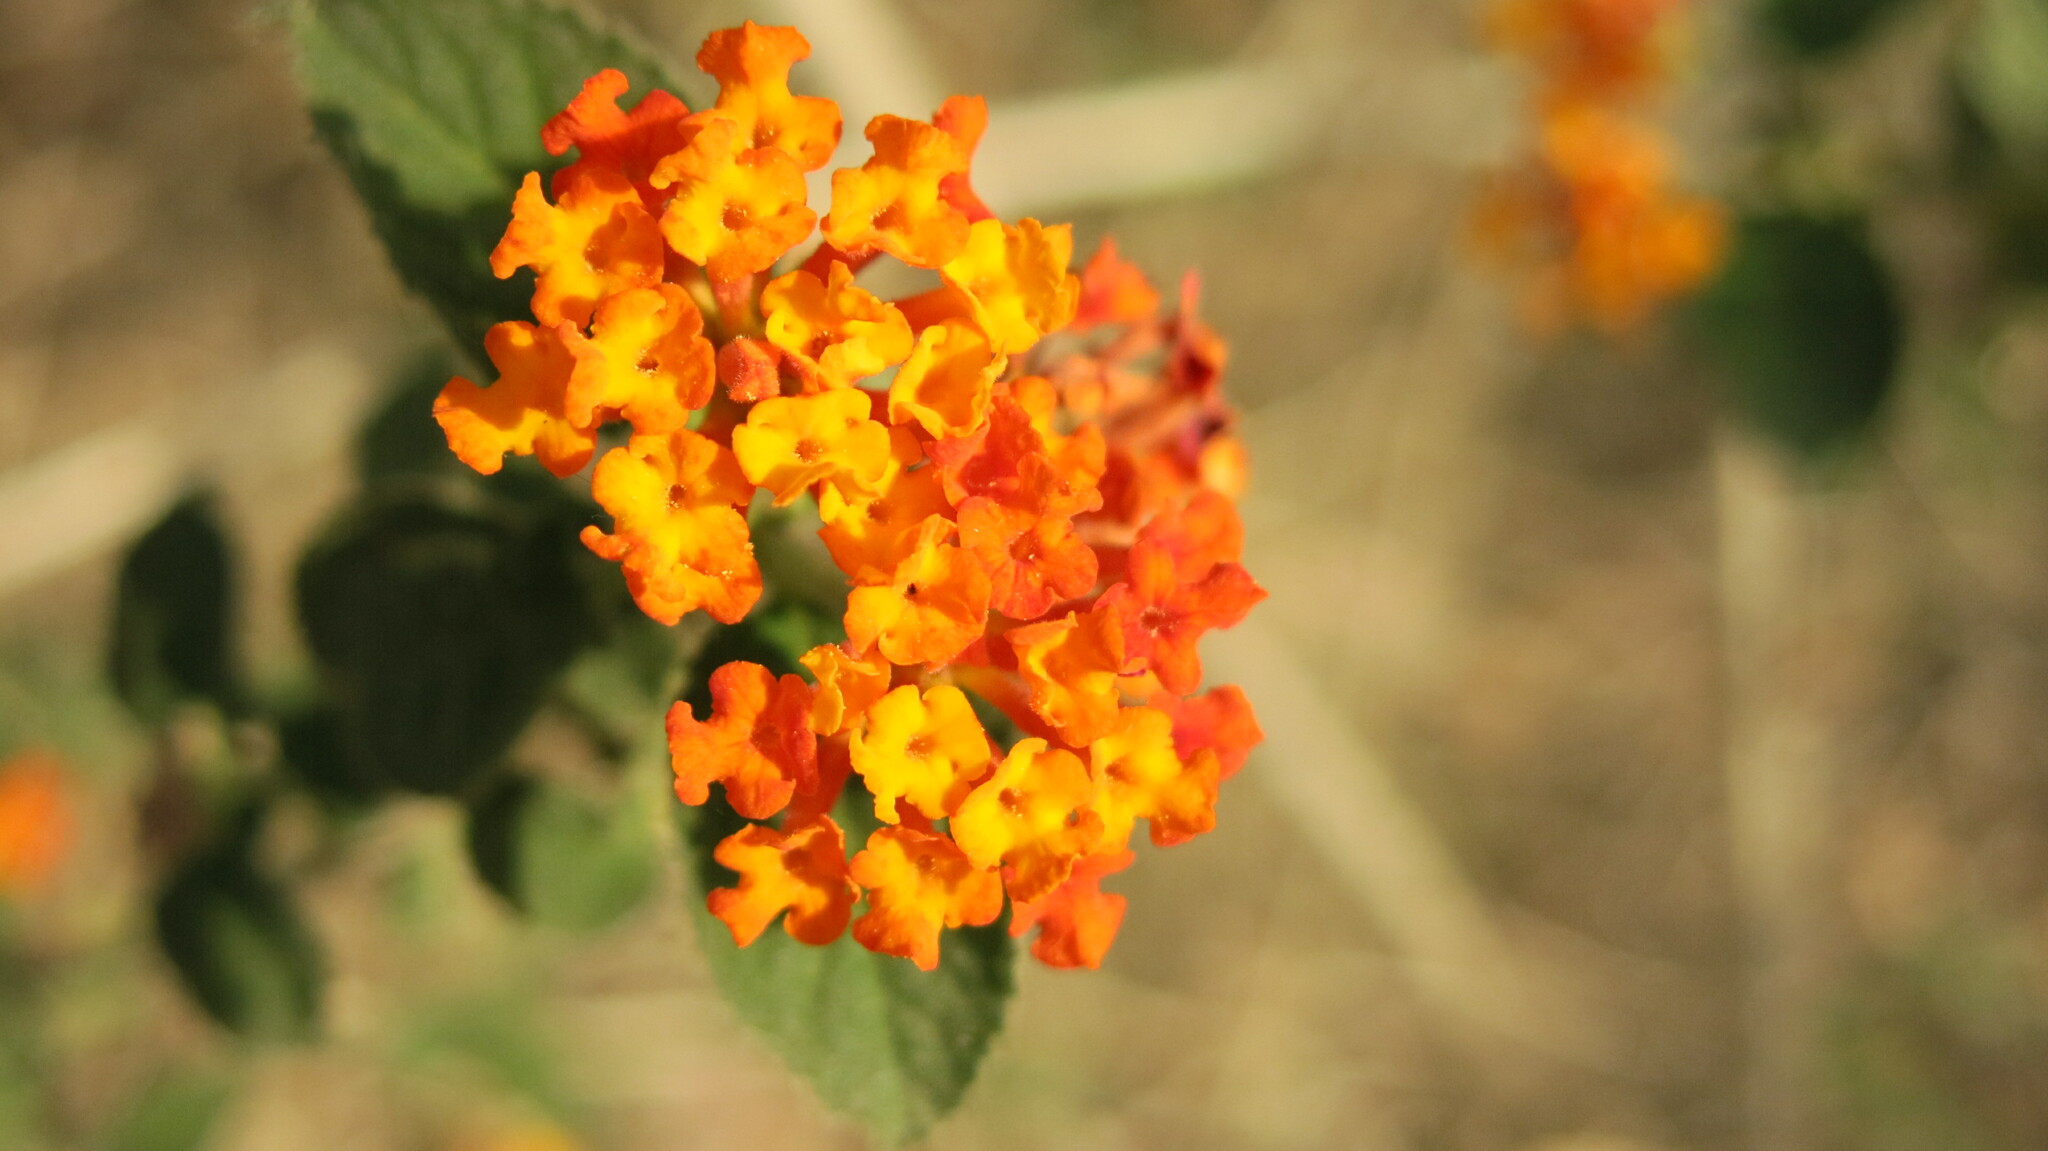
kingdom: Plantae
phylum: Tracheophyta
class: Magnoliopsida
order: Lamiales
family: Verbenaceae
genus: Lantana
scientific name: Lantana camara
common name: Lantana
